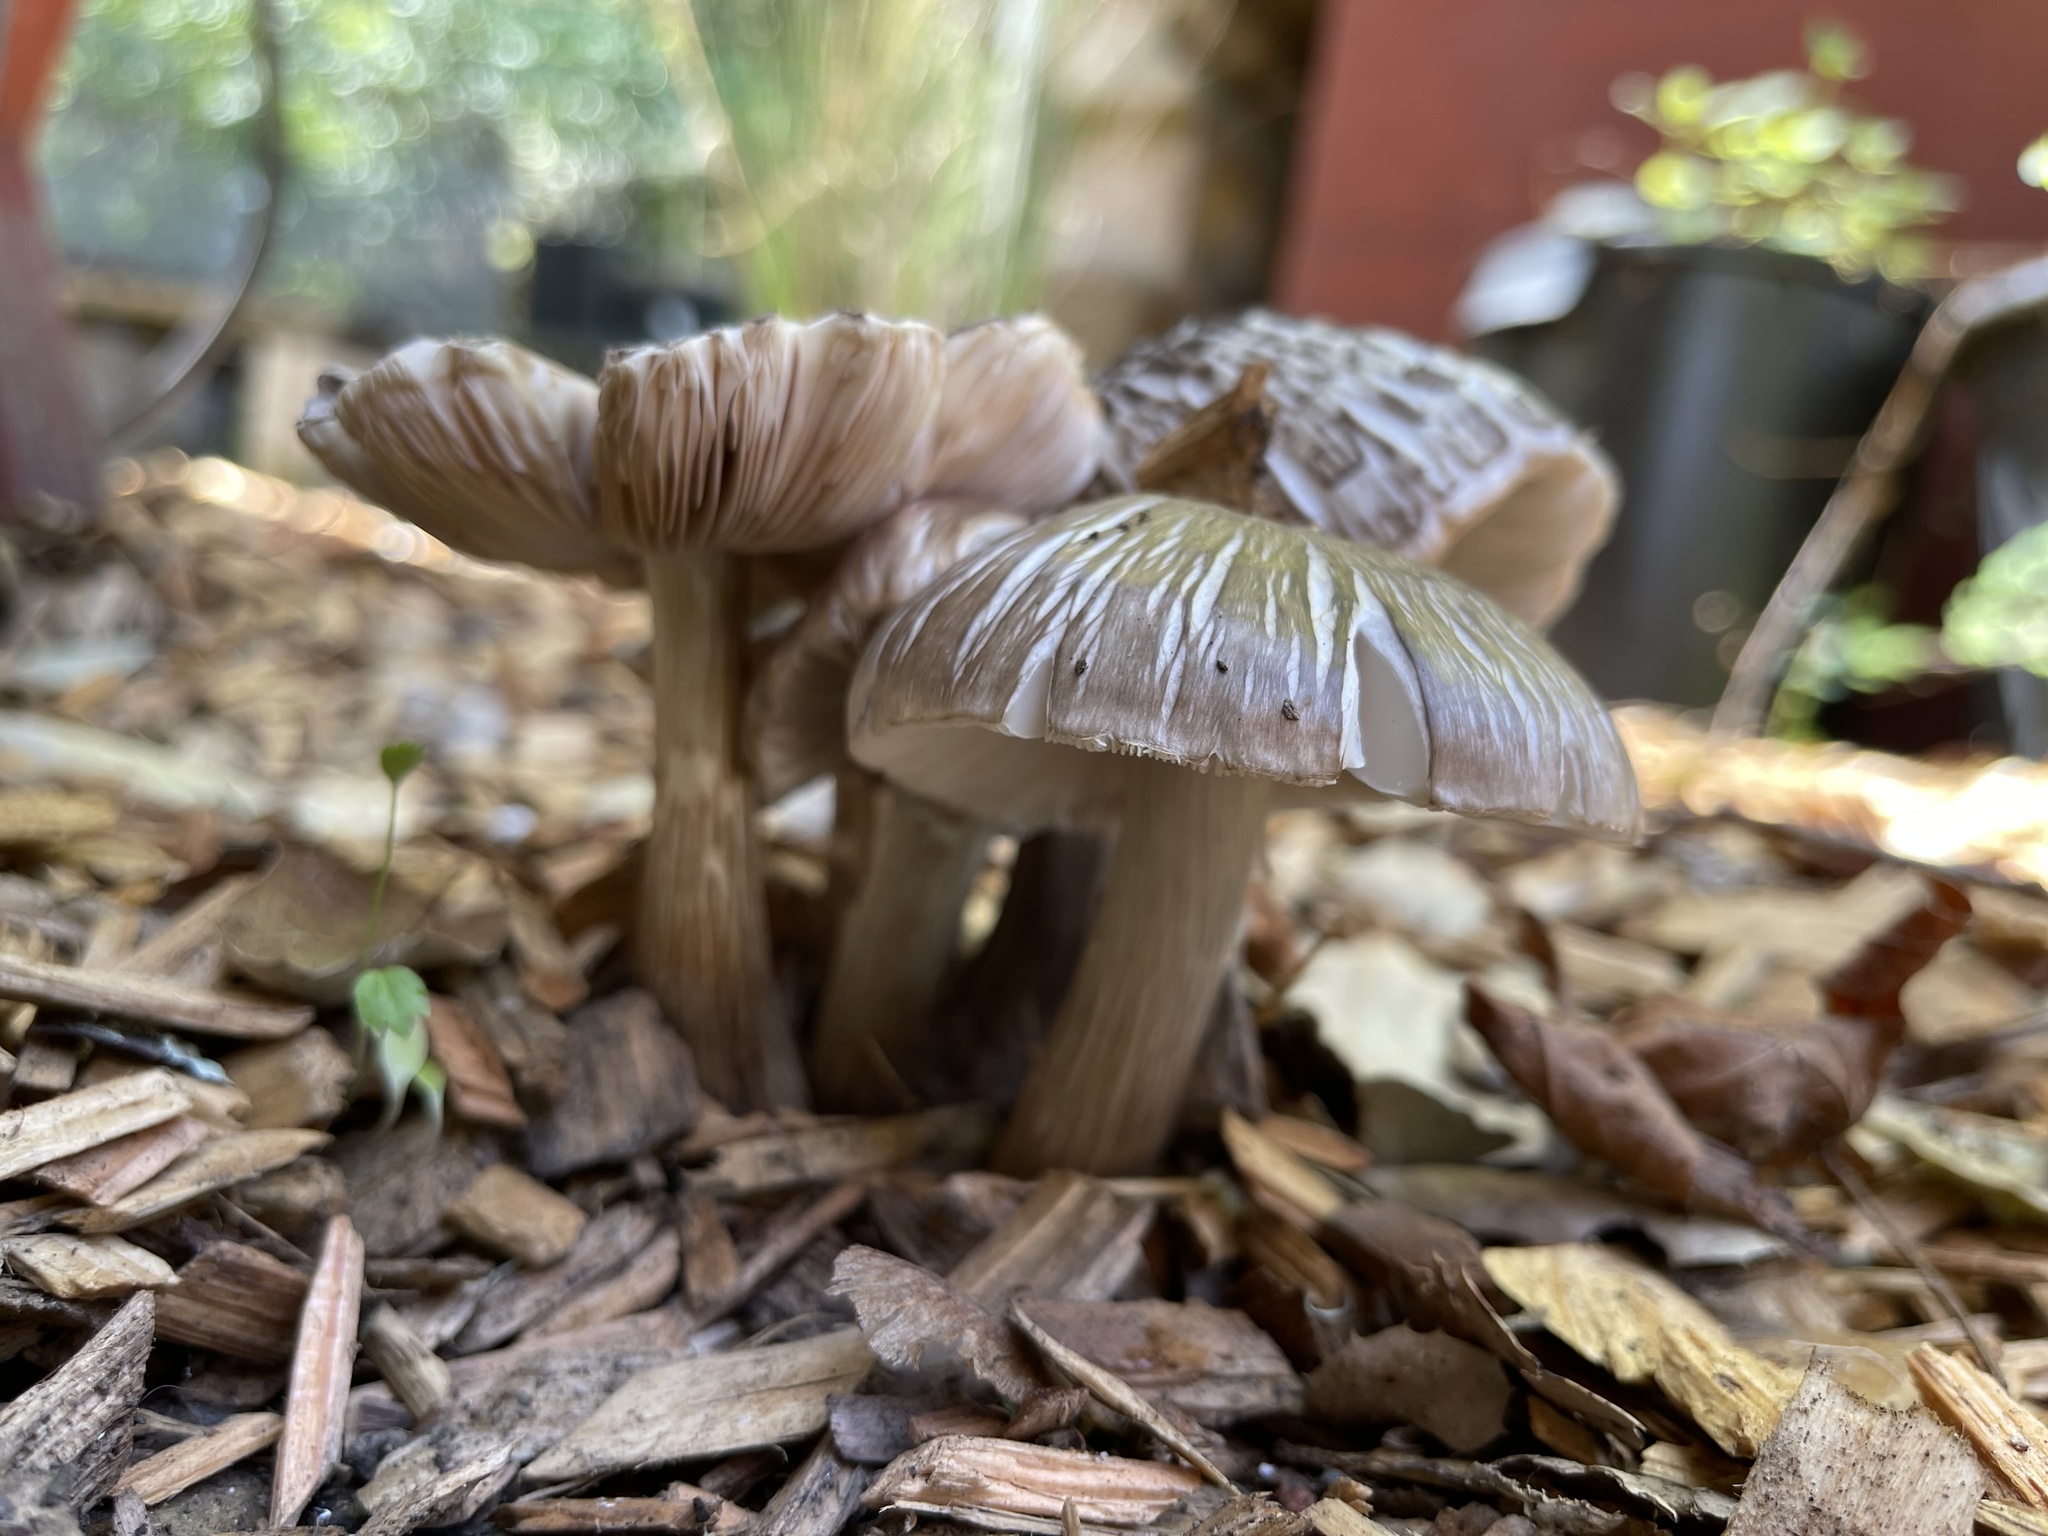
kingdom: Fungi
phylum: Basidiomycota
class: Agaricomycetes
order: Agaricales
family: Pluteaceae
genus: Pluteus
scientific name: Pluteus cervinus
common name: Deer shield
